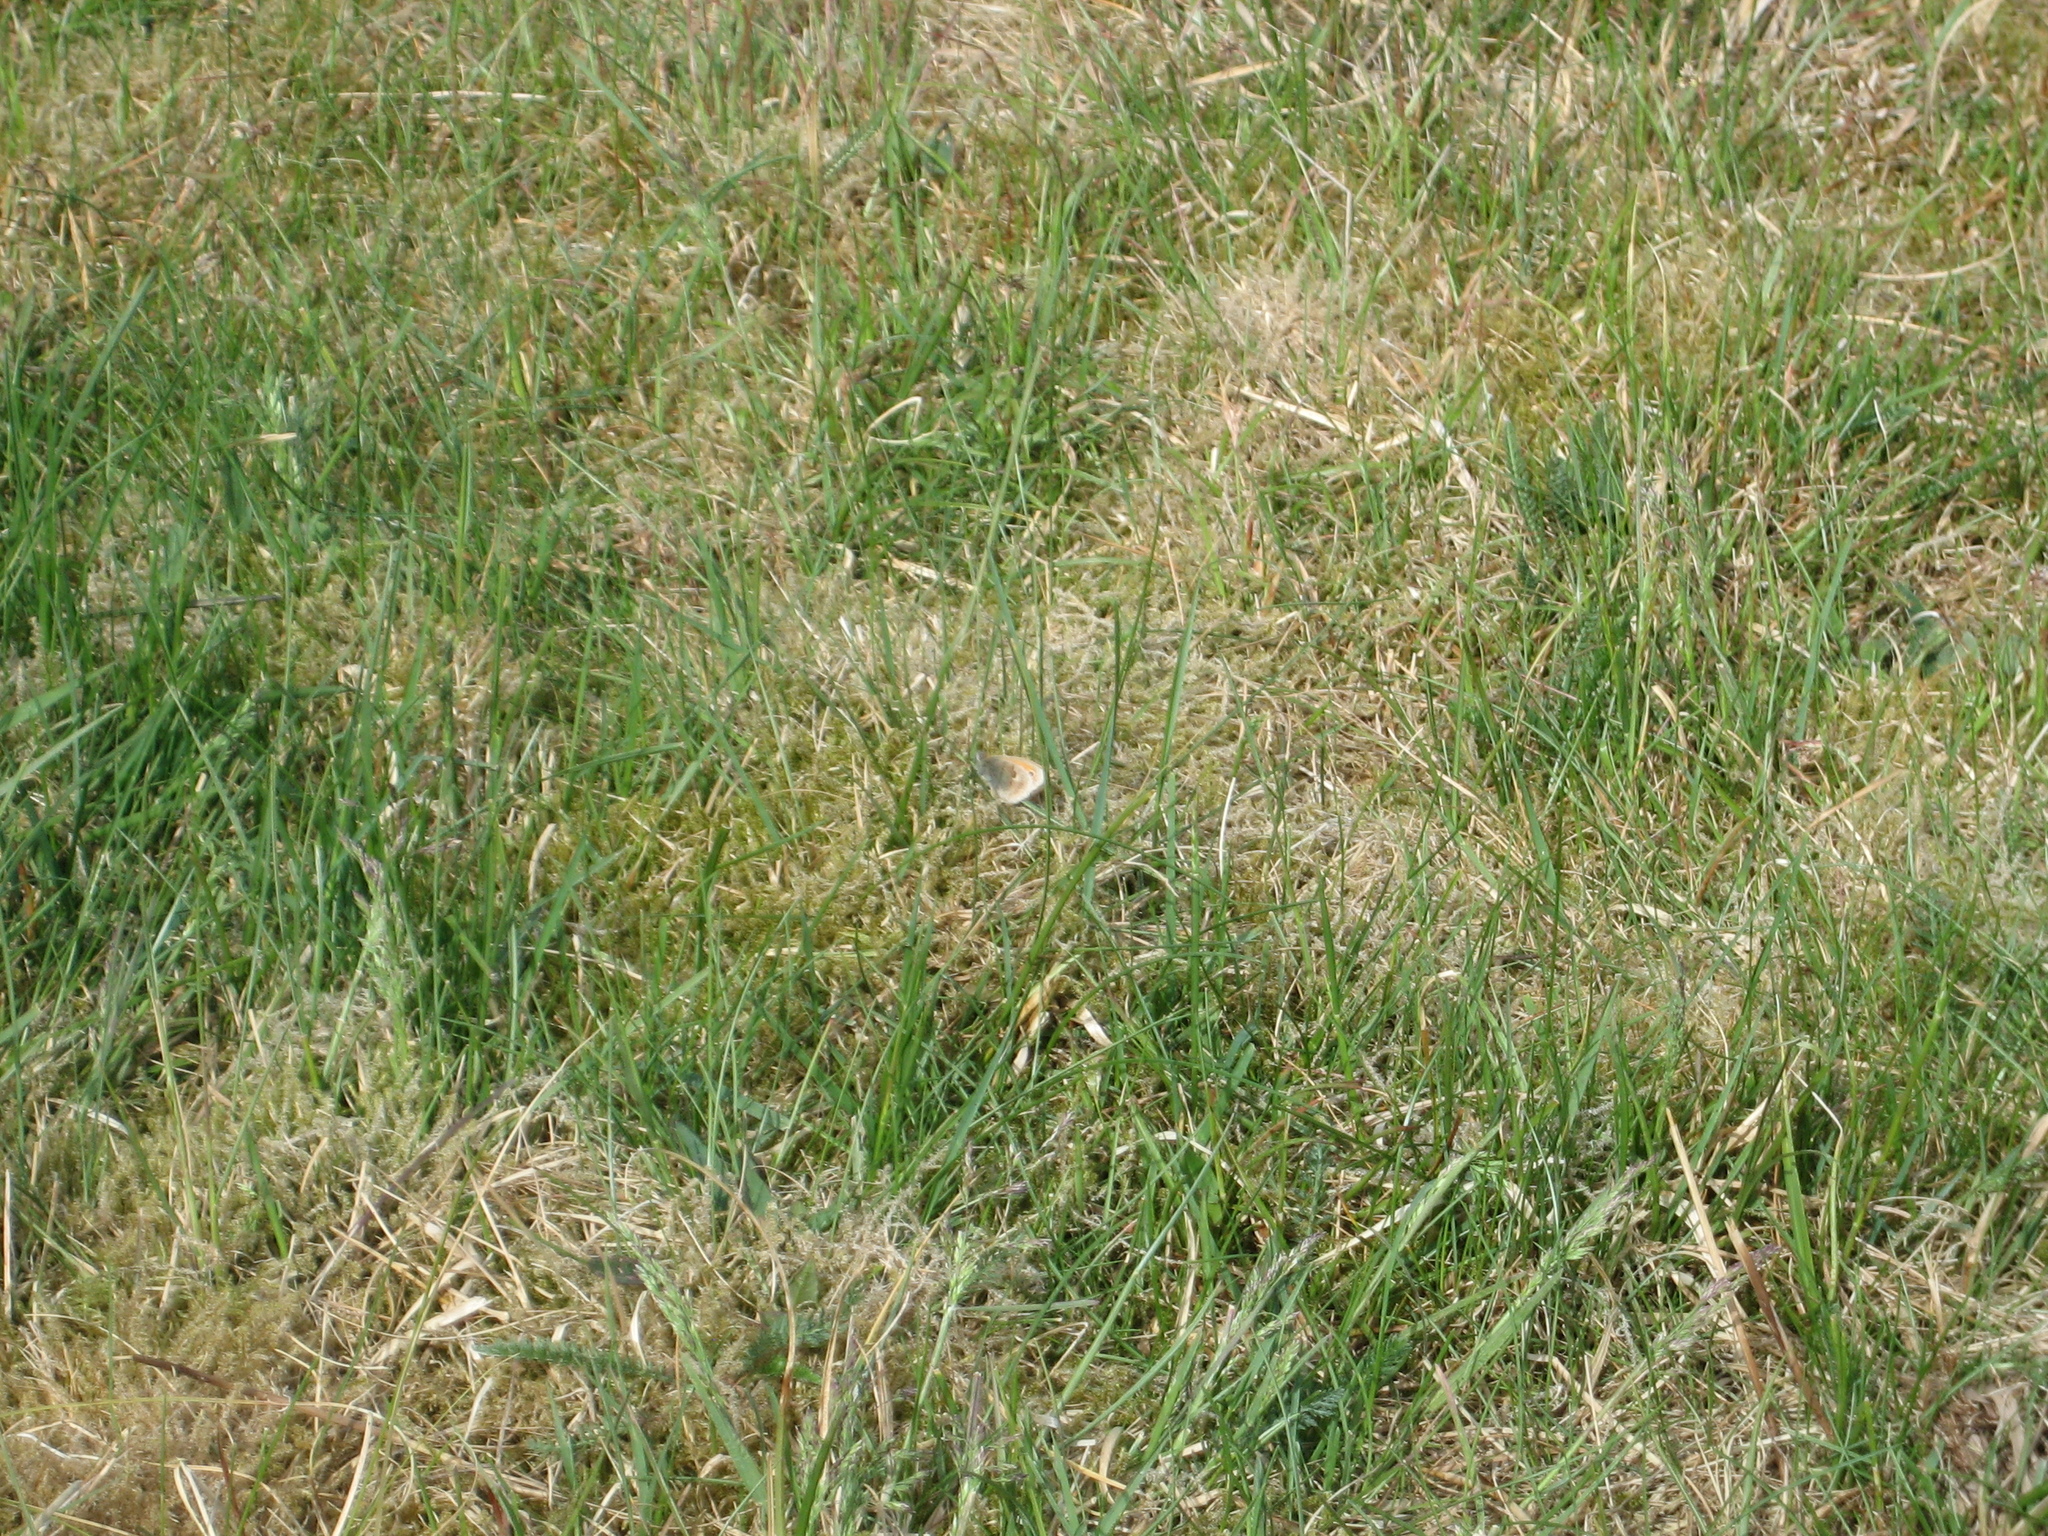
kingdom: Animalia
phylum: Arthropoda
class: Insecta
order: Lepidoptera
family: Nymphalidae
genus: Coenonympha
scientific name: Coenonympha pamphilus
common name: Small heath
